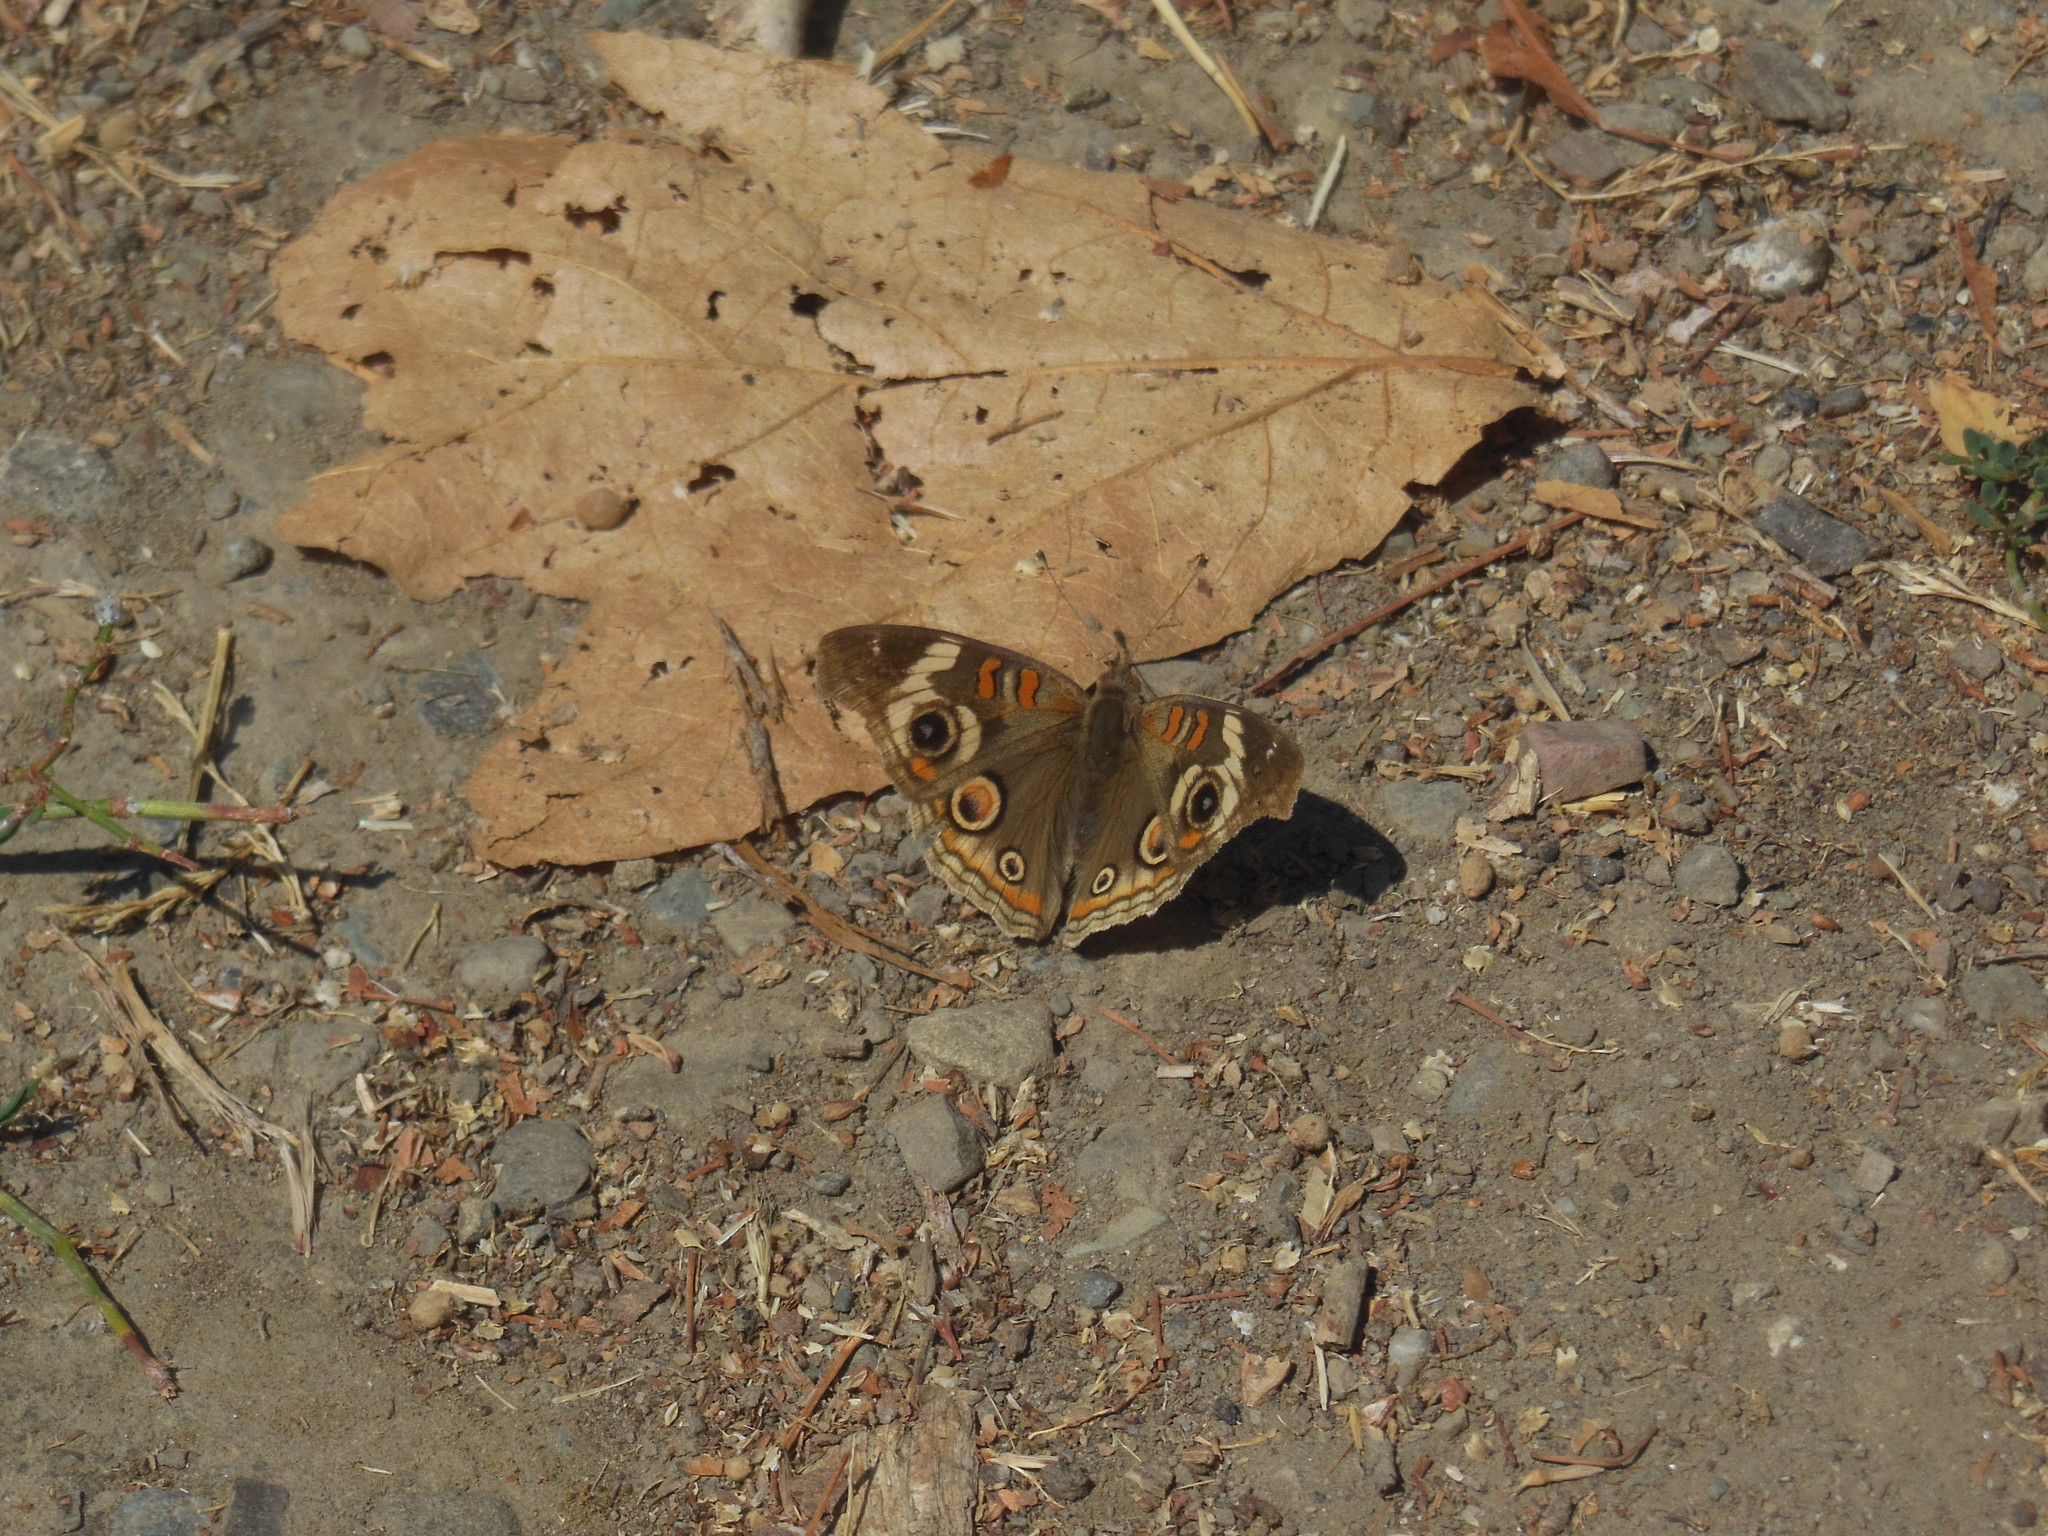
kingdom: Animalia
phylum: Arthropoda
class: Insecta
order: Lepidoptera
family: Nymphalidae
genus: Junonia
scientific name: Junonia grisea
